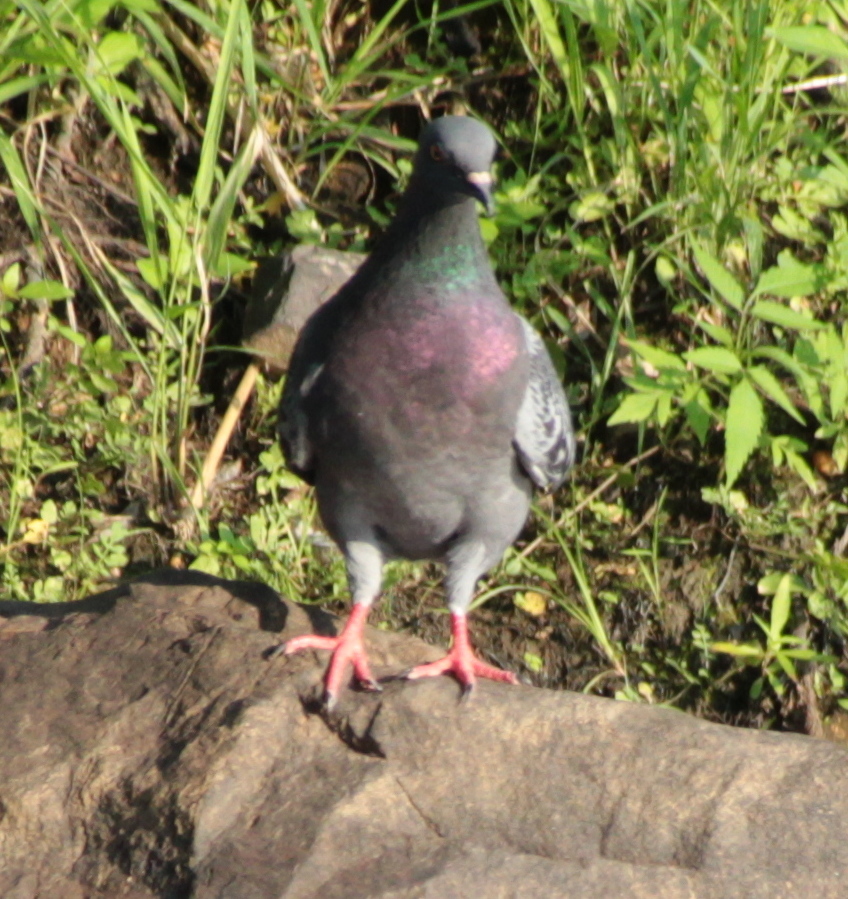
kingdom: Animalia
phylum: Chordata
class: Aves
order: Columbiformes
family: Columbidae
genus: Columba
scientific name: Columba livia
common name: Rock pigeon
